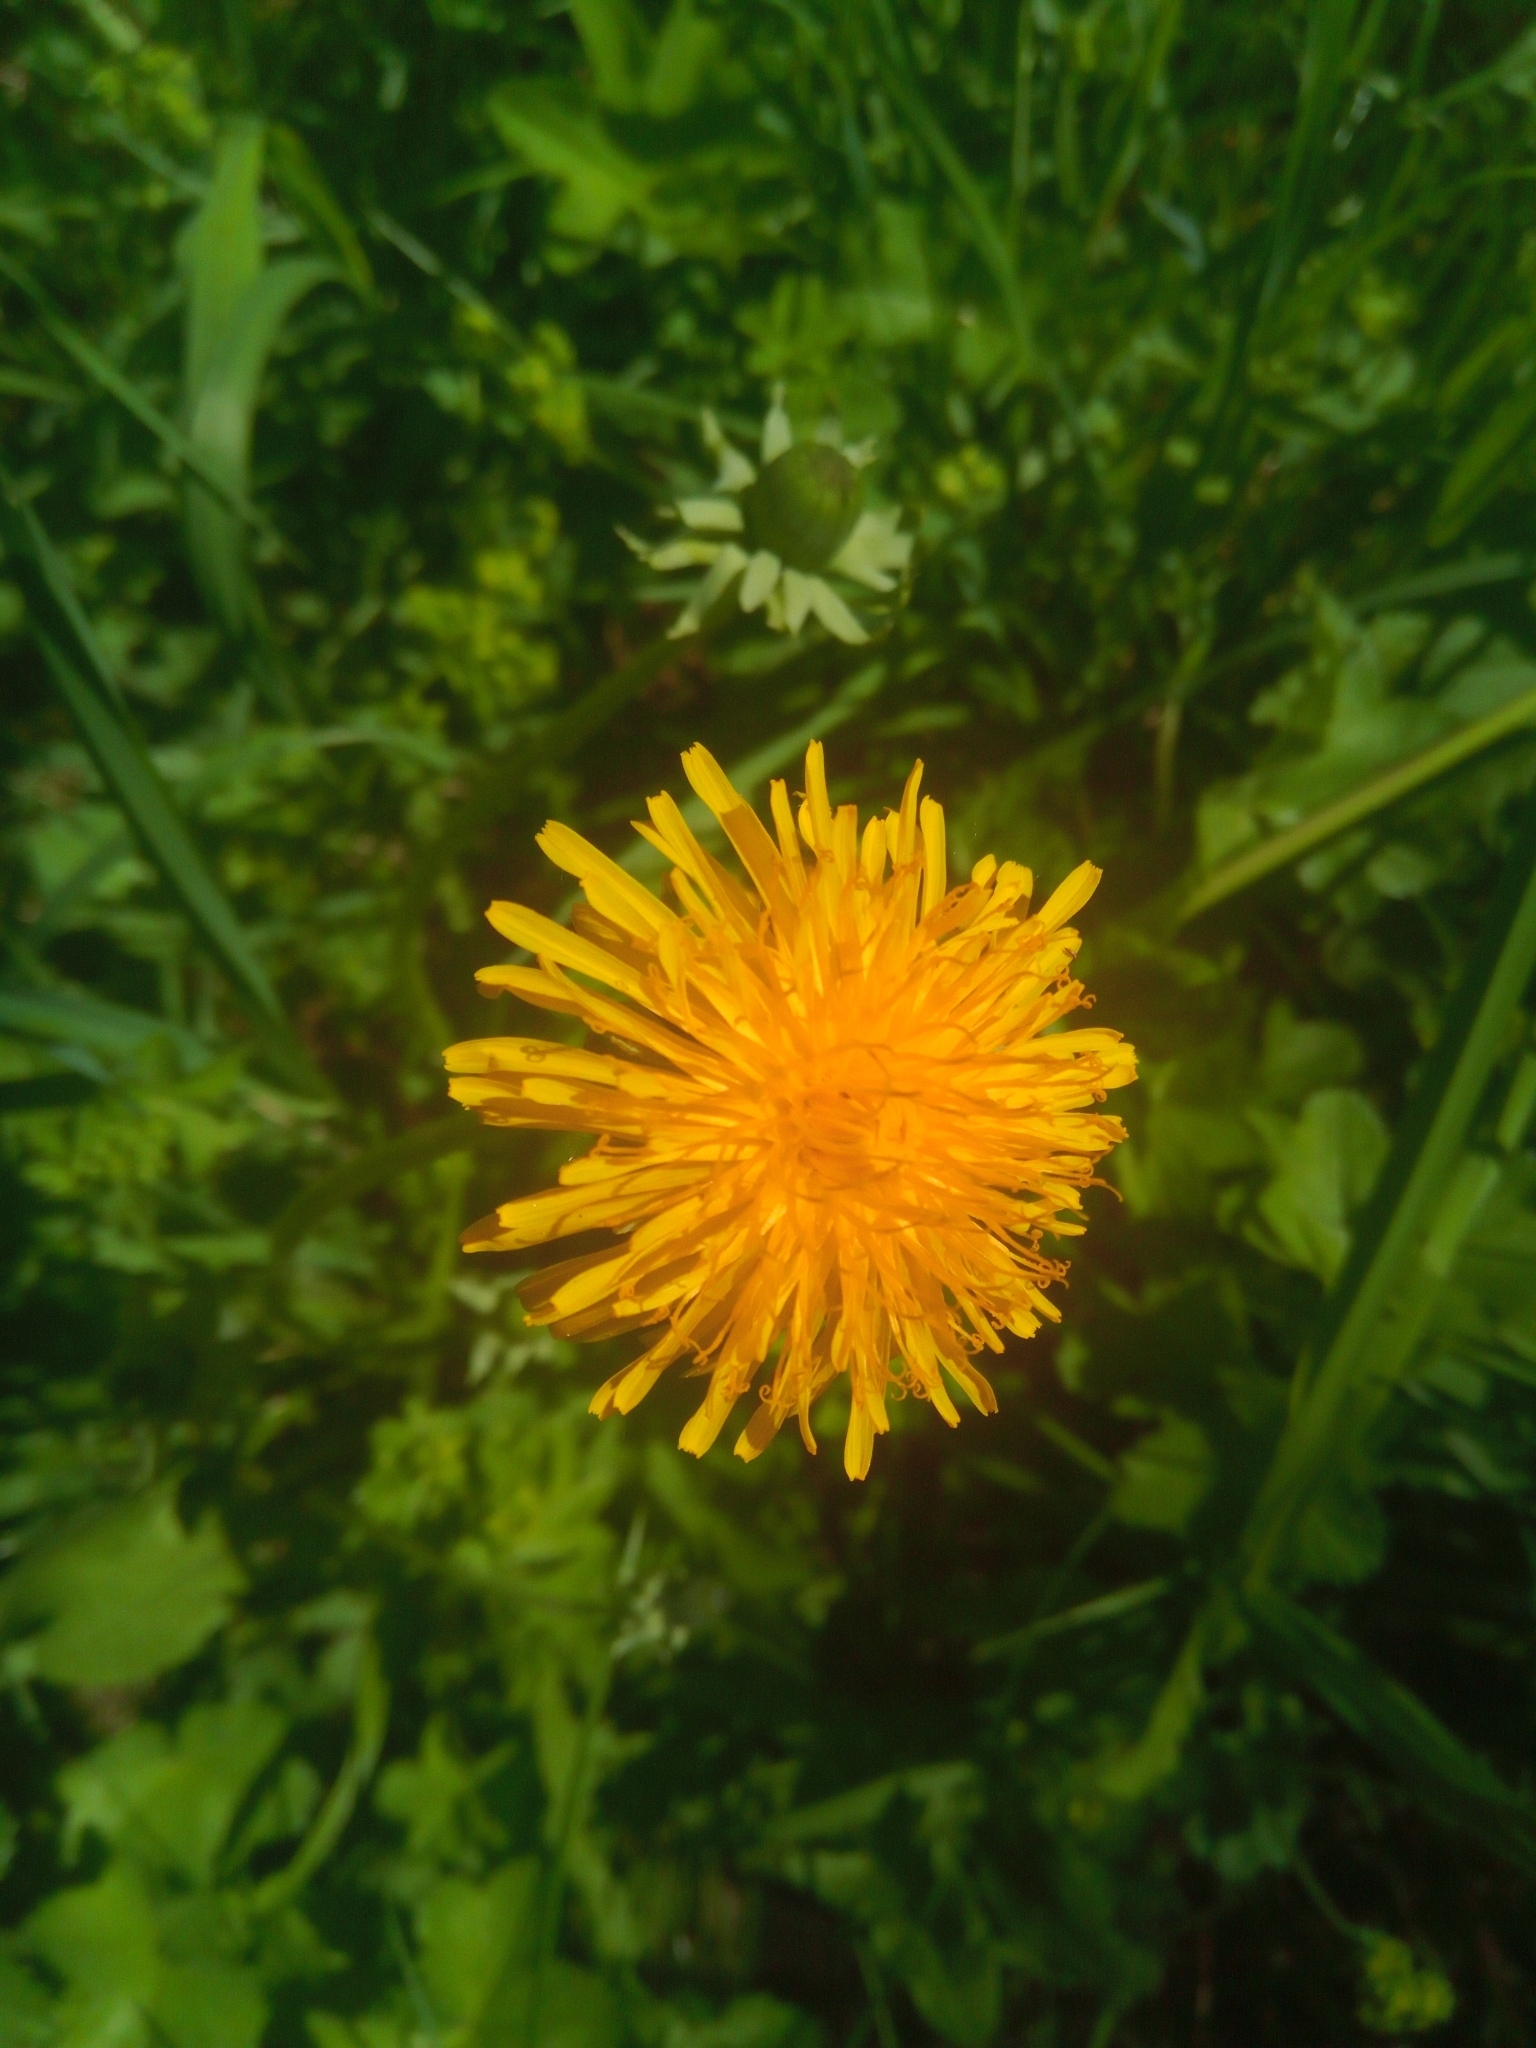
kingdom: Plantae
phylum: Tracheophyta
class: Magnoliopsida
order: Asterales
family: Asteraceae
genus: Taraxacum
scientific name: Taraxacum officinale
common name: Common dandelion
